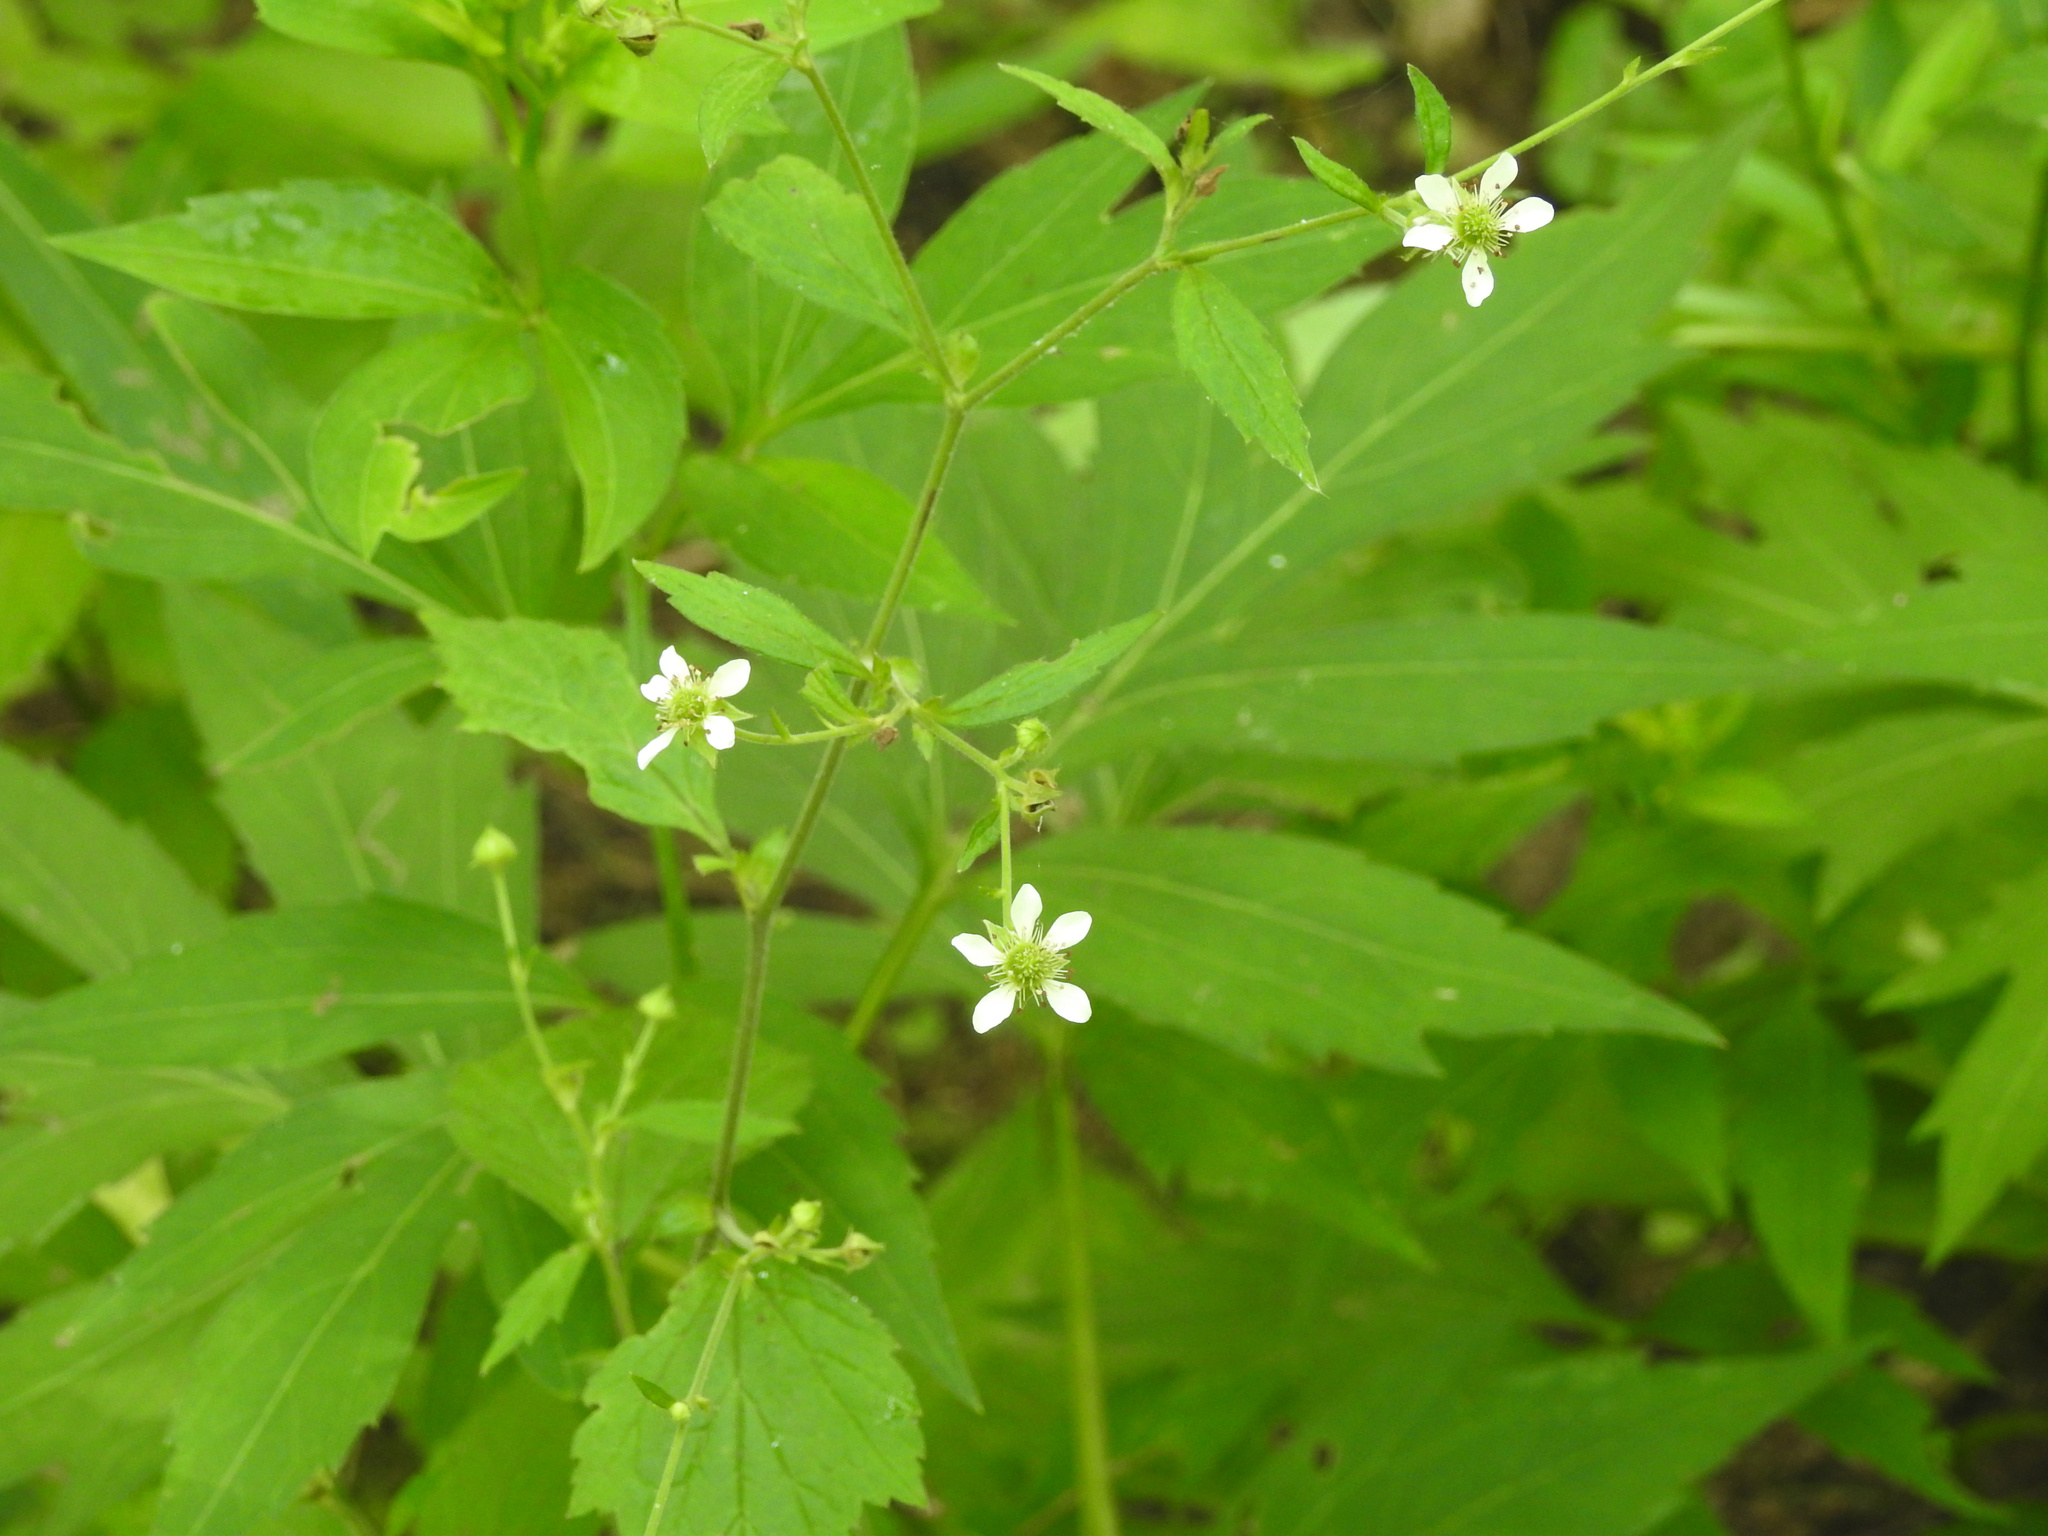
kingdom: Plantae
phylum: Tracheophyta
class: Magnoliopsida
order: Rosales
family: Rosaceae
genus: Geum
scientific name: Geum canadense
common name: White avens
